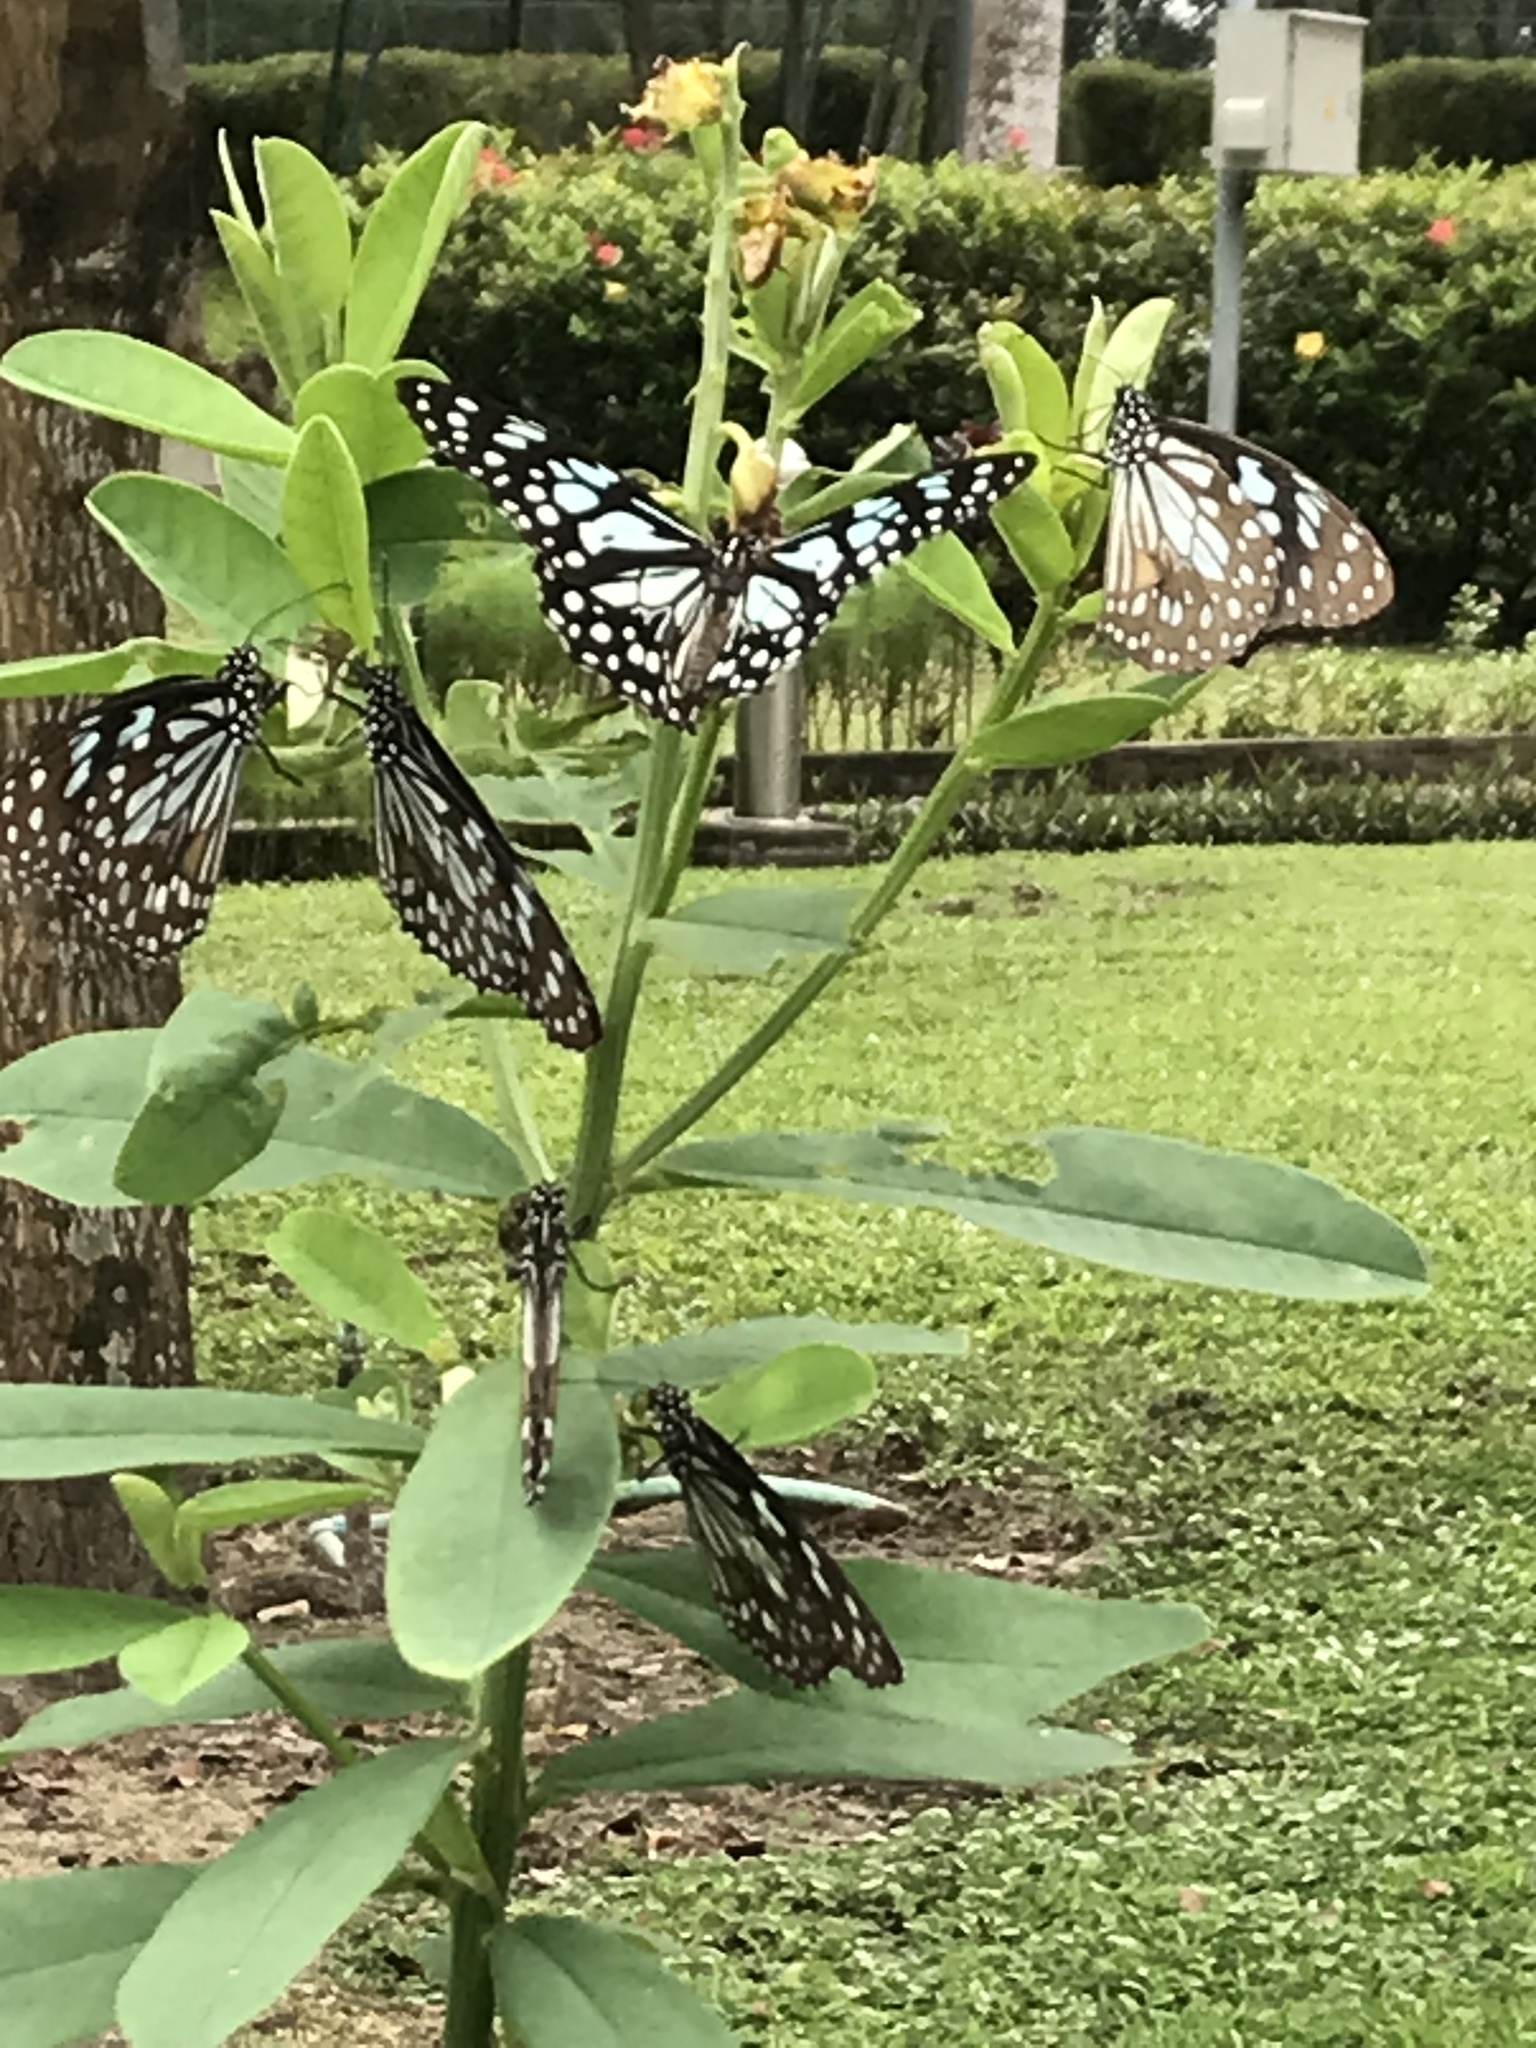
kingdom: Animalia
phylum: Arthropoda
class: Insecta
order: Lepidoptera
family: Nymphalidae
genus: Tirumala
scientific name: Tirumala limniace
